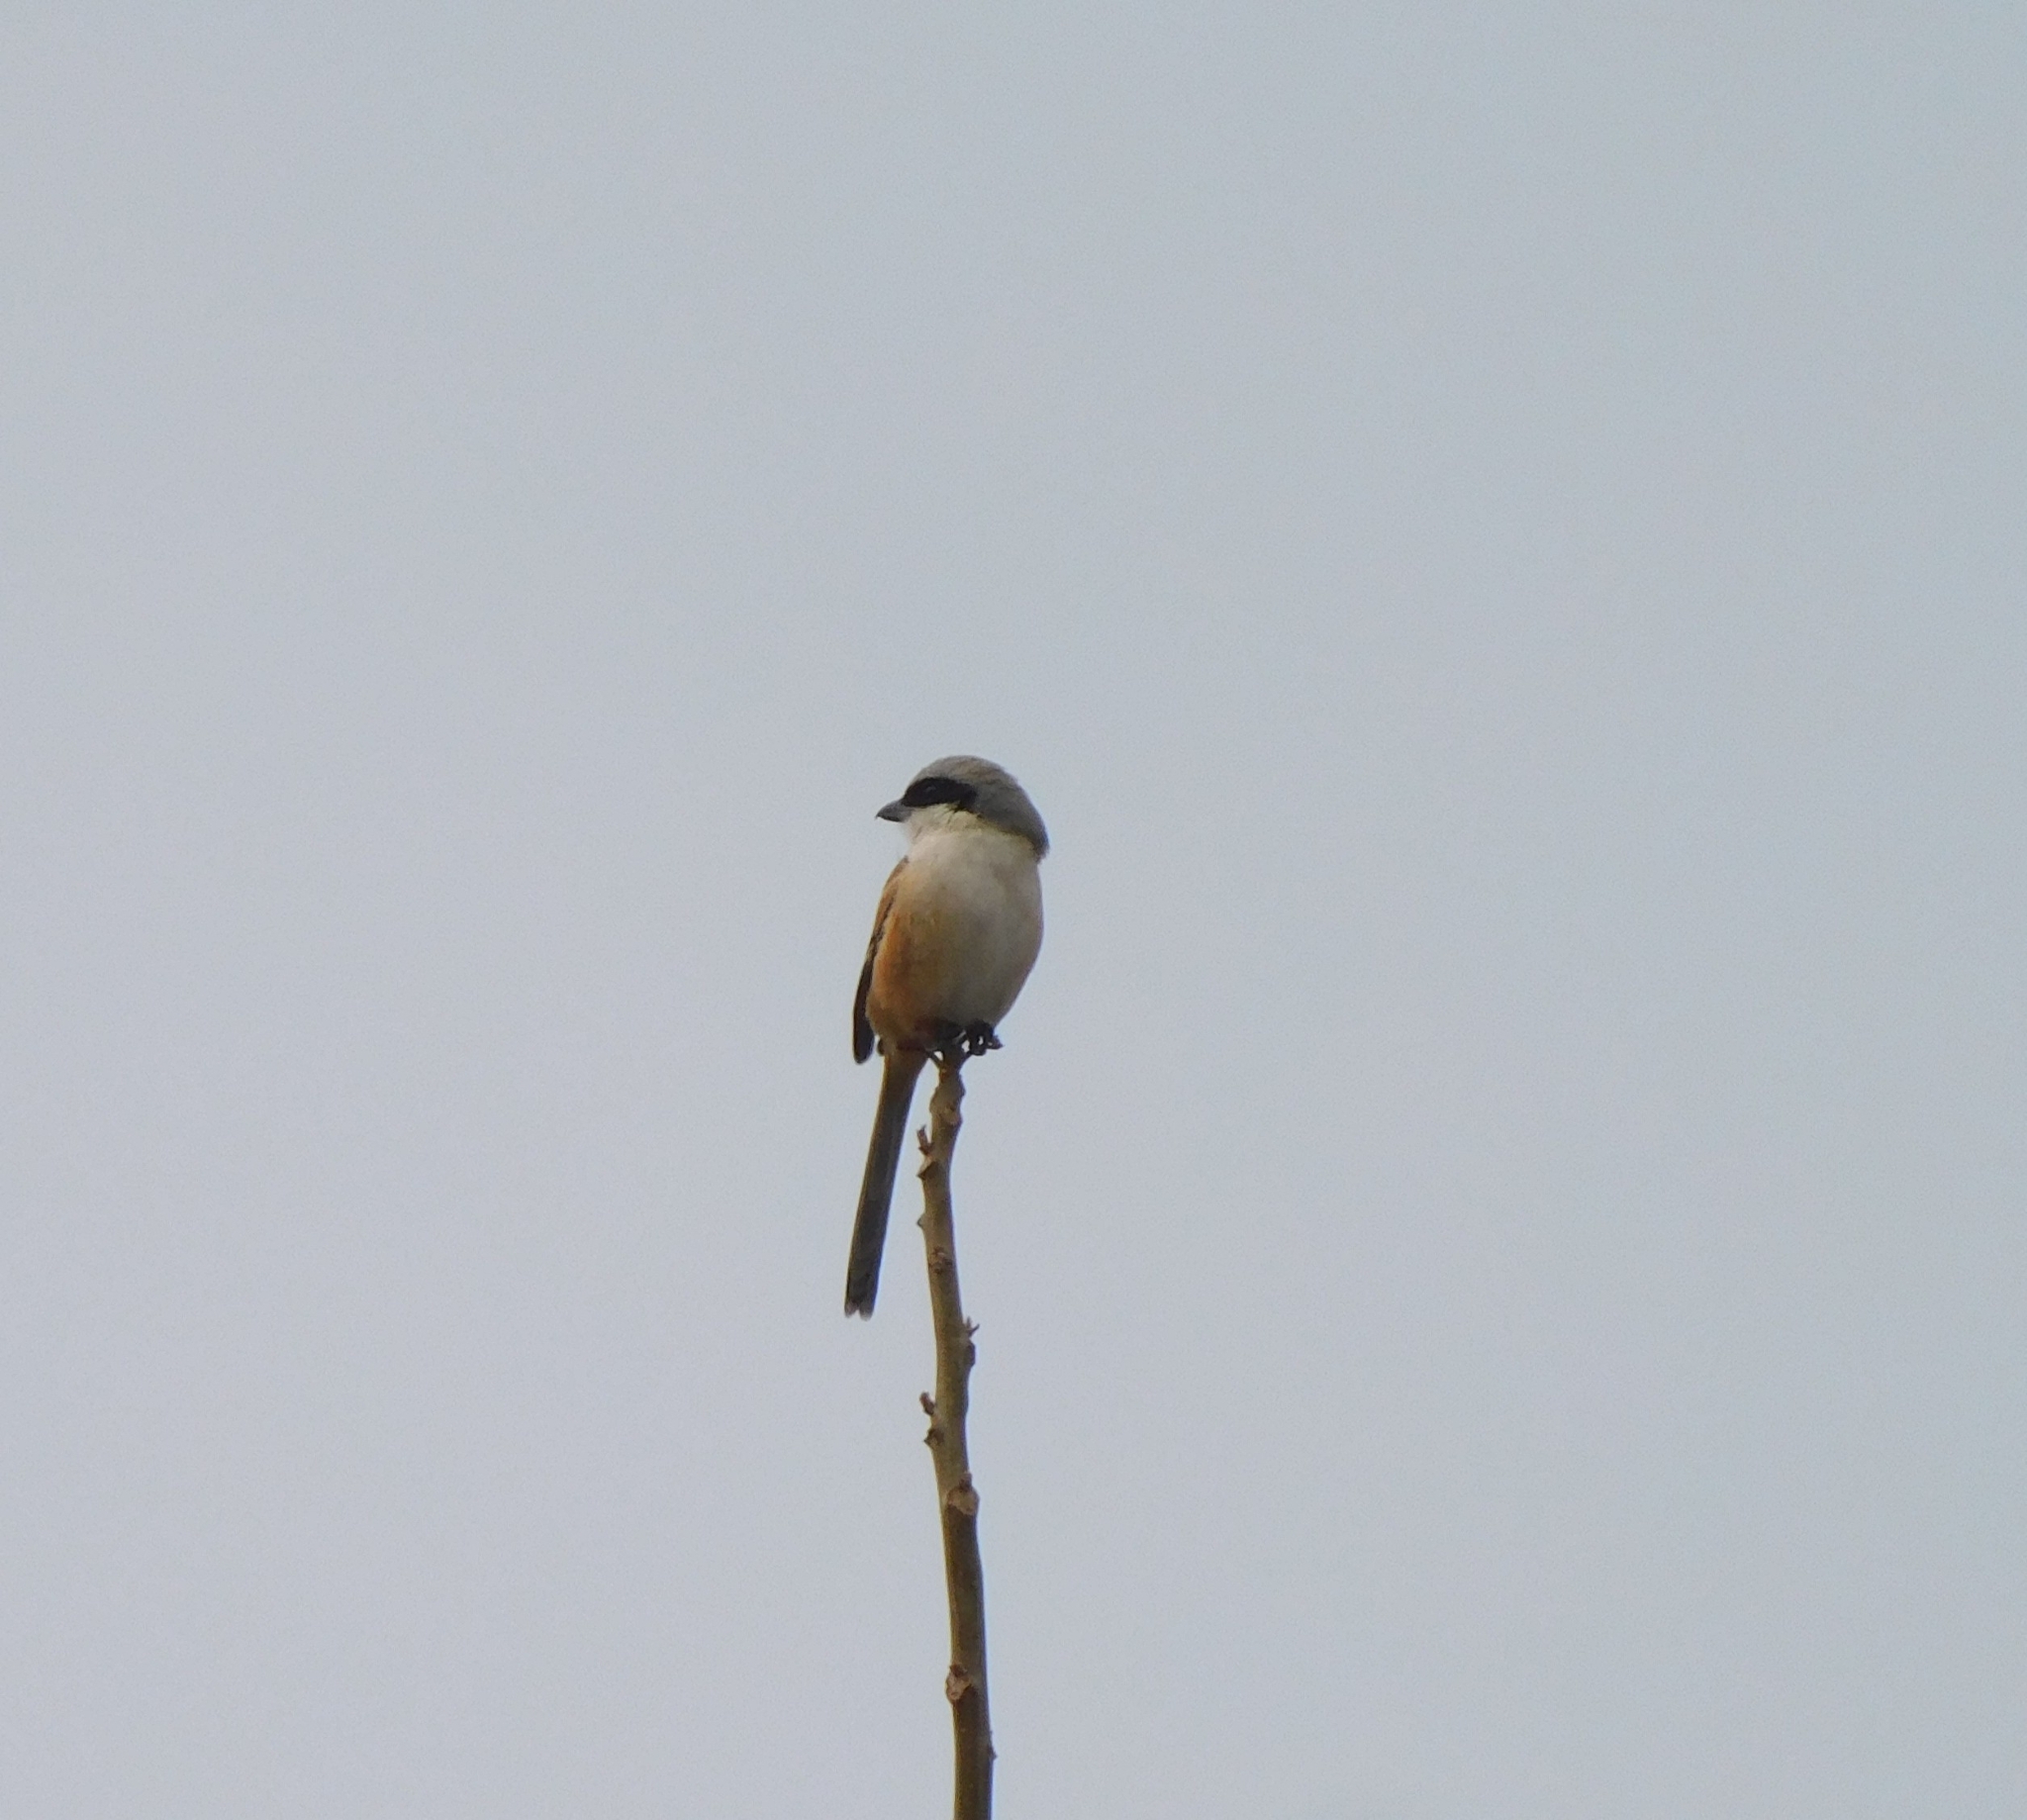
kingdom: Animalia
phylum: Chordata
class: Aves
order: Passeriformes
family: Laniidae
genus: Lanius
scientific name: Lanius schach
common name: Long-tailed shrike
